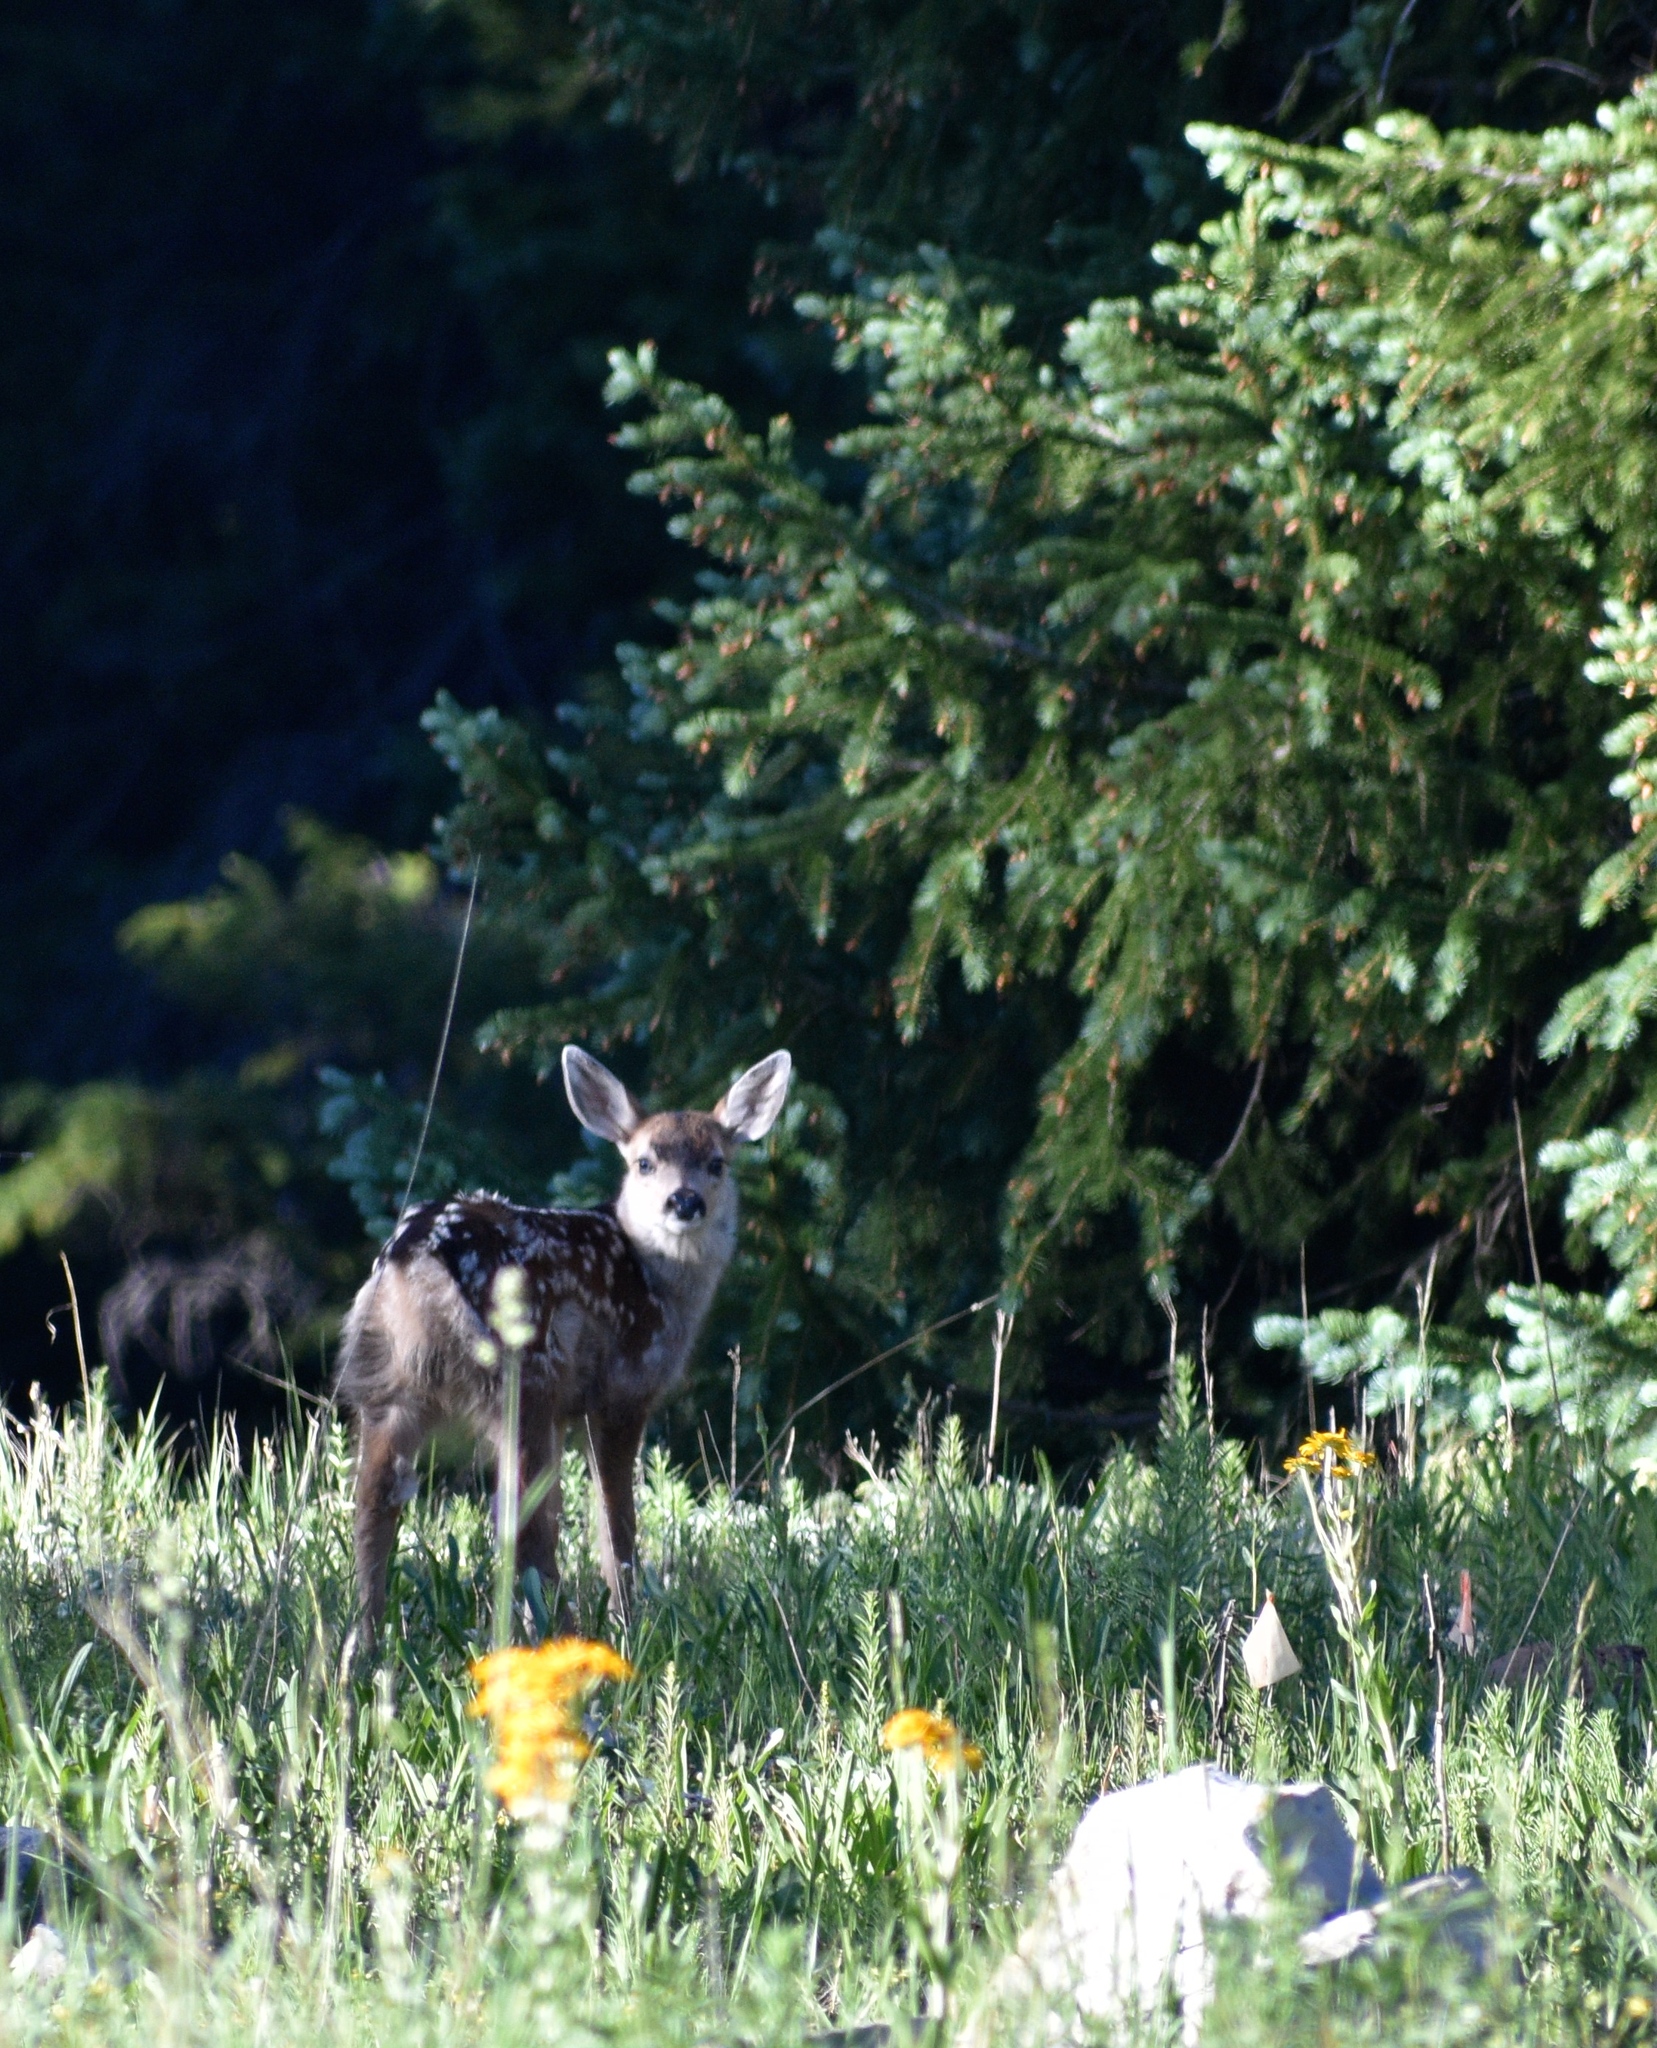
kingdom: Animalia
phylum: Chordata
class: Mammalia
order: Artiodactyla
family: Cervidae
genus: Odocoileus
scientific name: Odocoileus hemionus
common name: Mule deer
